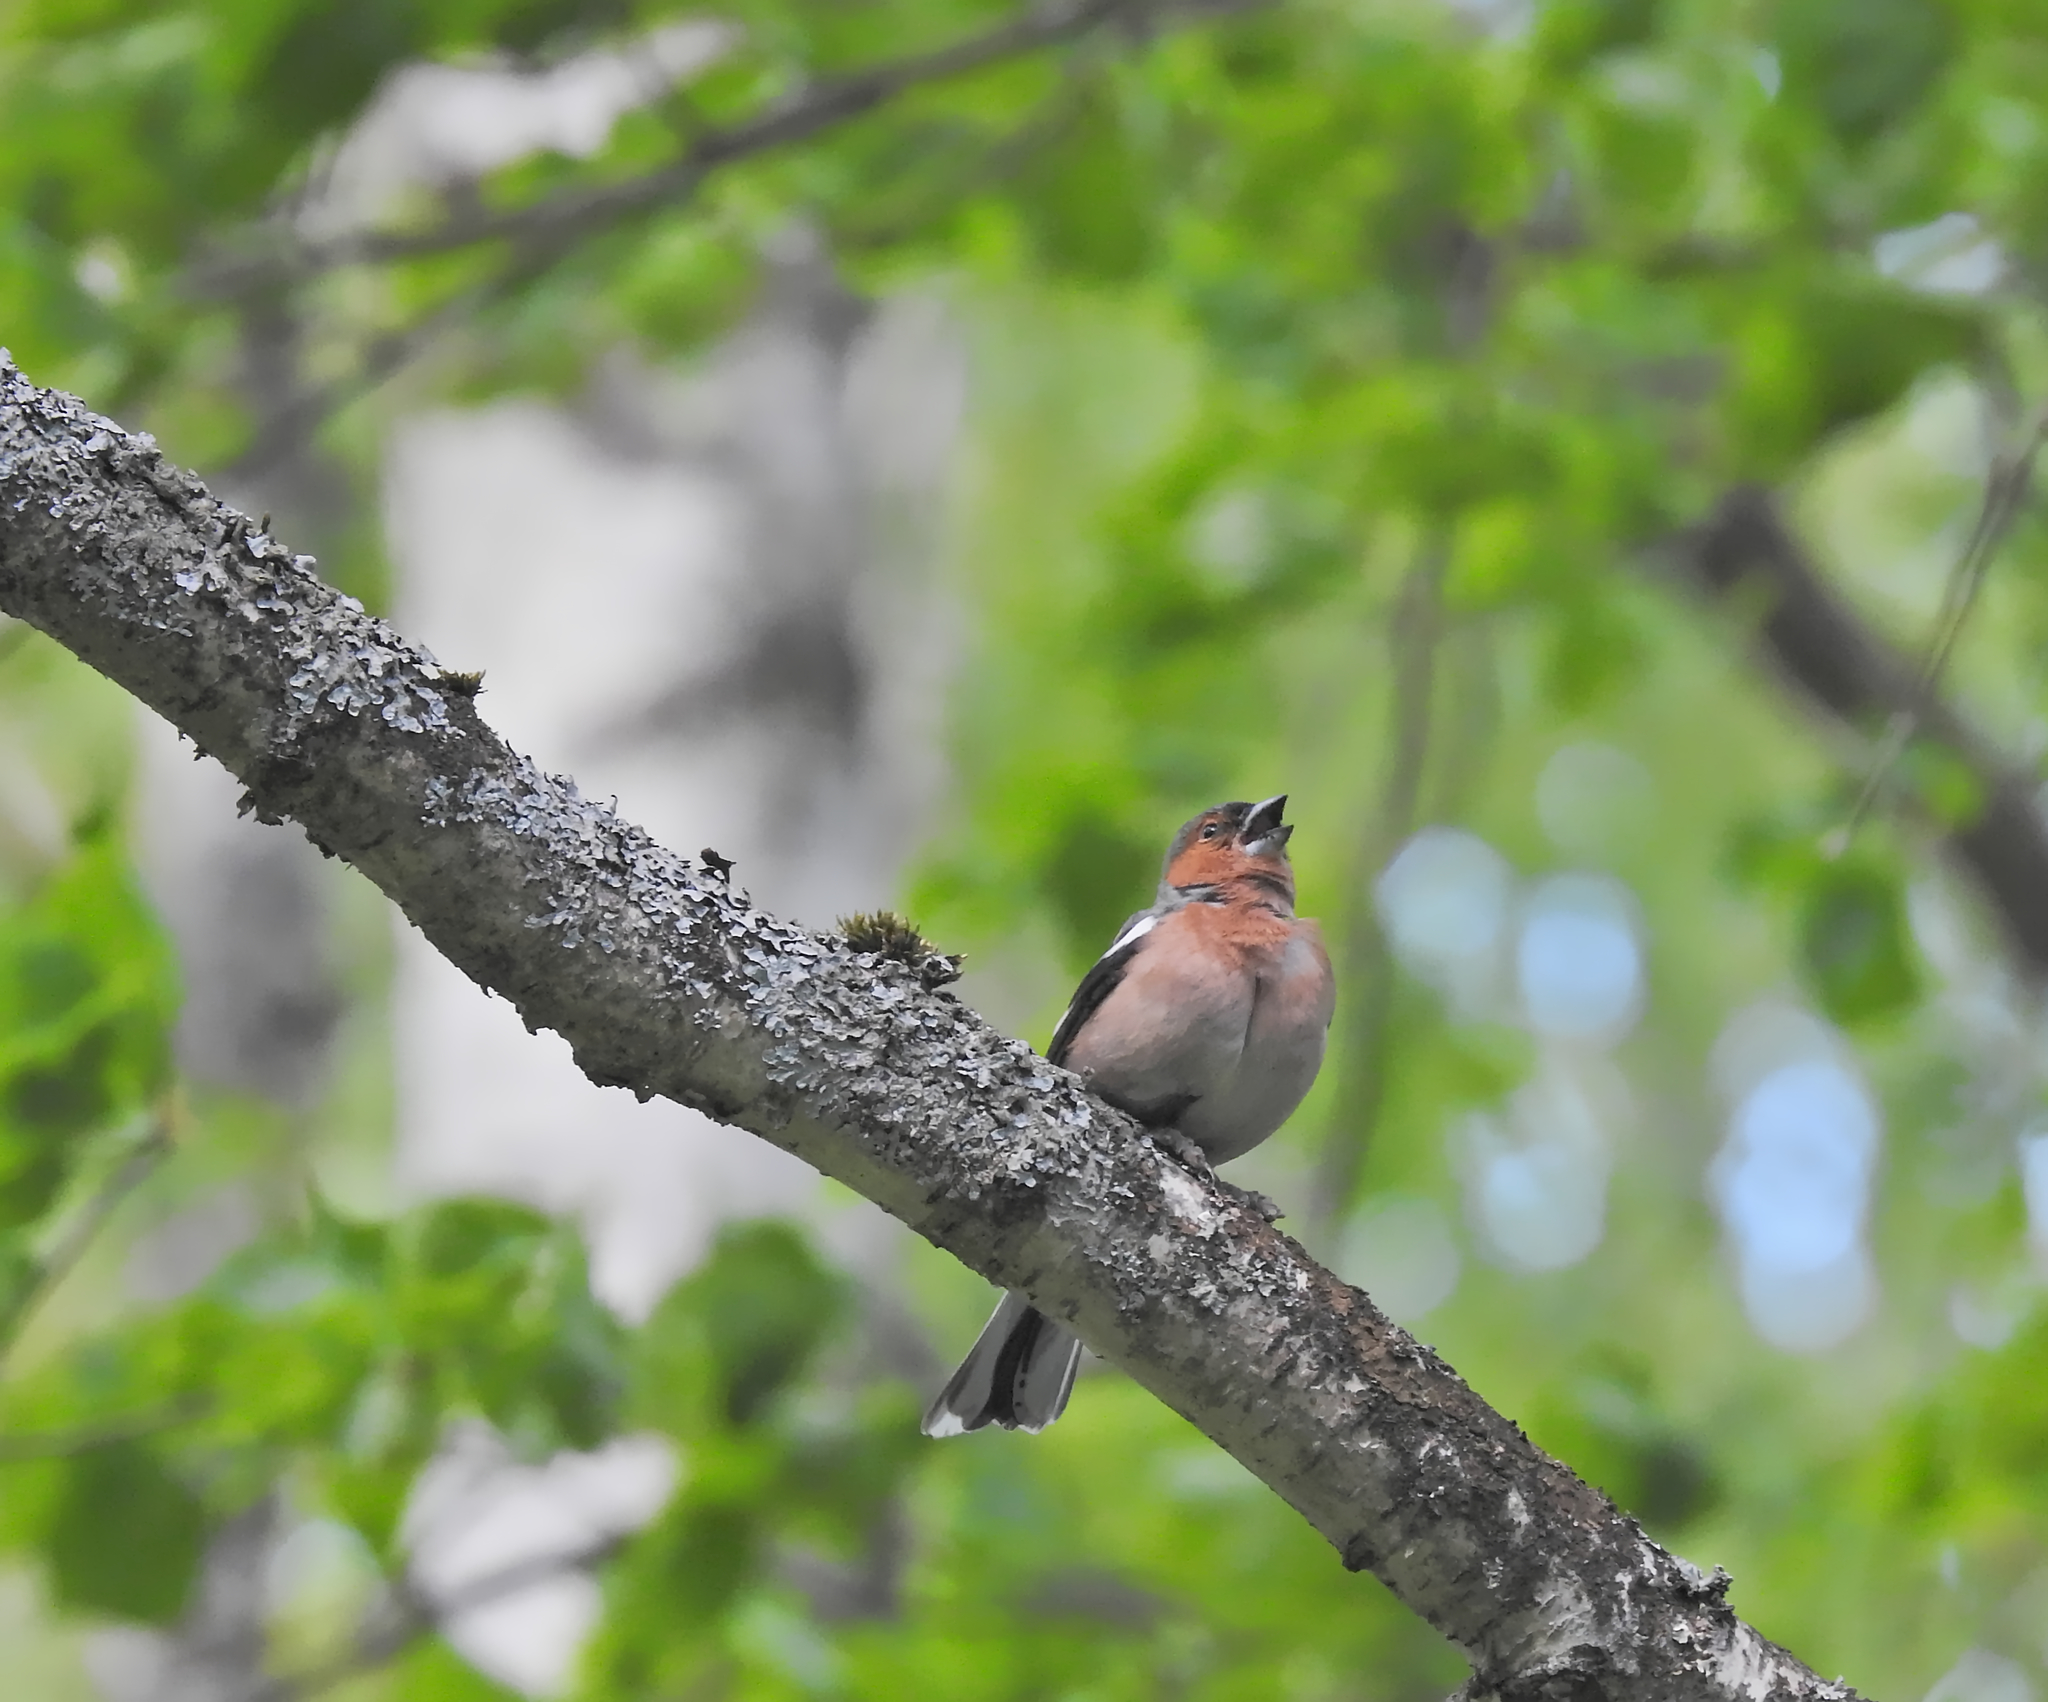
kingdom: Animalia
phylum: Chordata
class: Aves
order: Passeriformes
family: Fringillidae
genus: Fringilla
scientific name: Fringilla coelebs
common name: Common chaffinch
